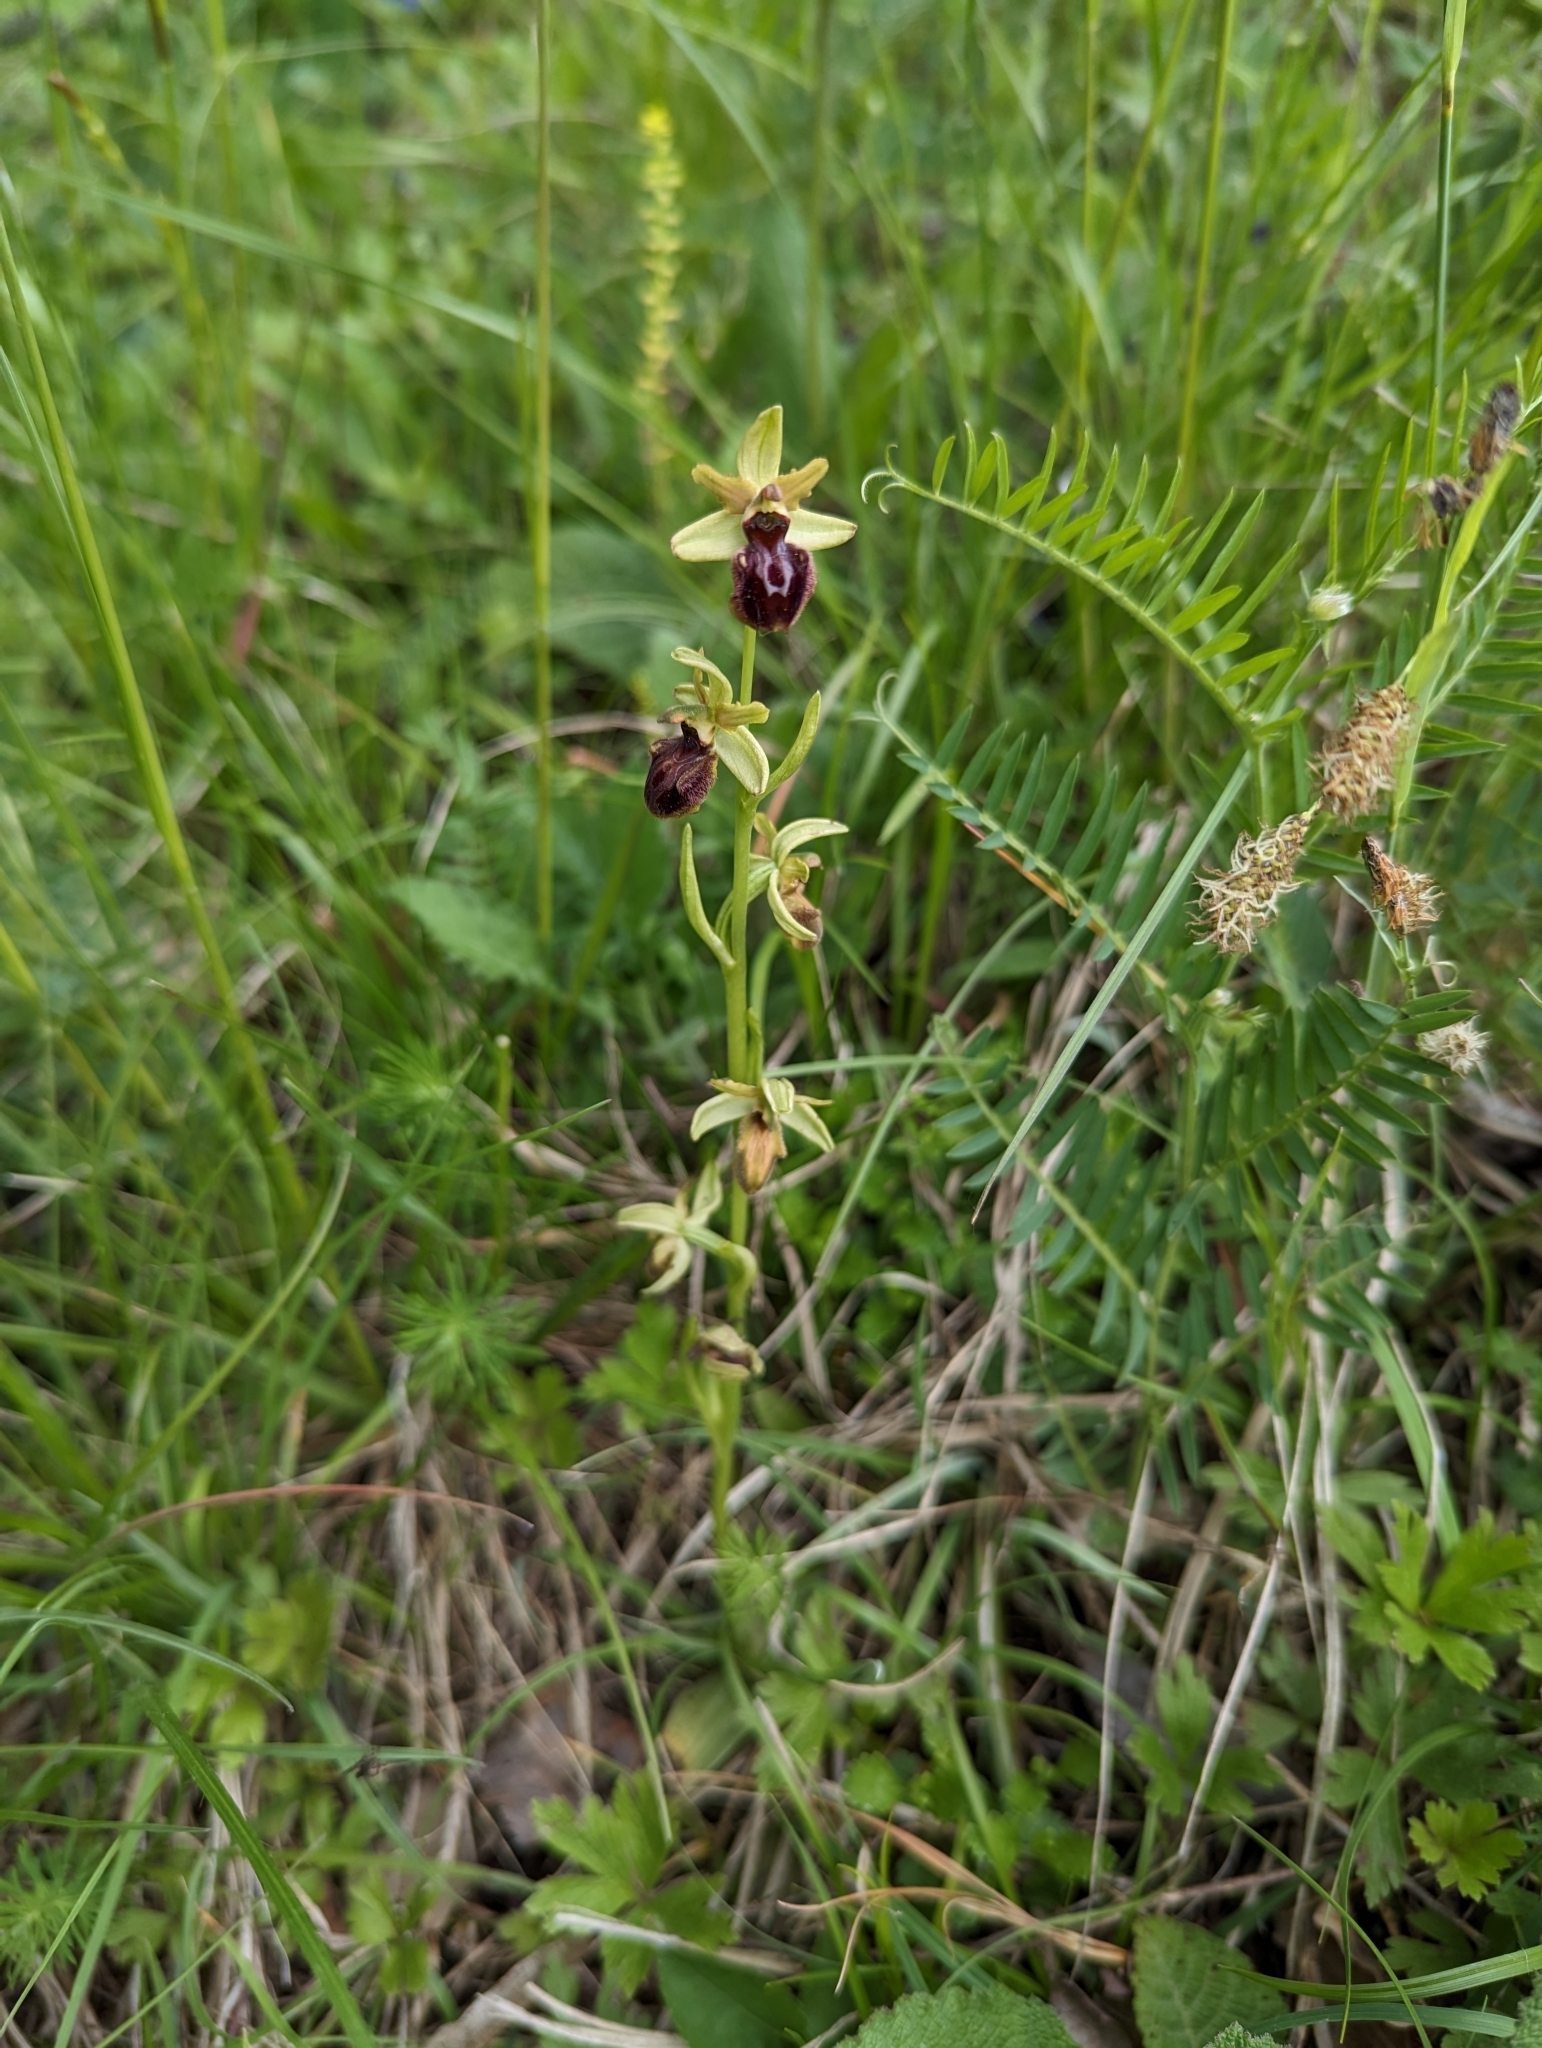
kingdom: Plantae
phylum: Tracheophyta
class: Liliopsida
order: Asparagales
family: Orchidaceae
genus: Ophrys
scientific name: Ophrys sphegodes
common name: Early spider-orchid
